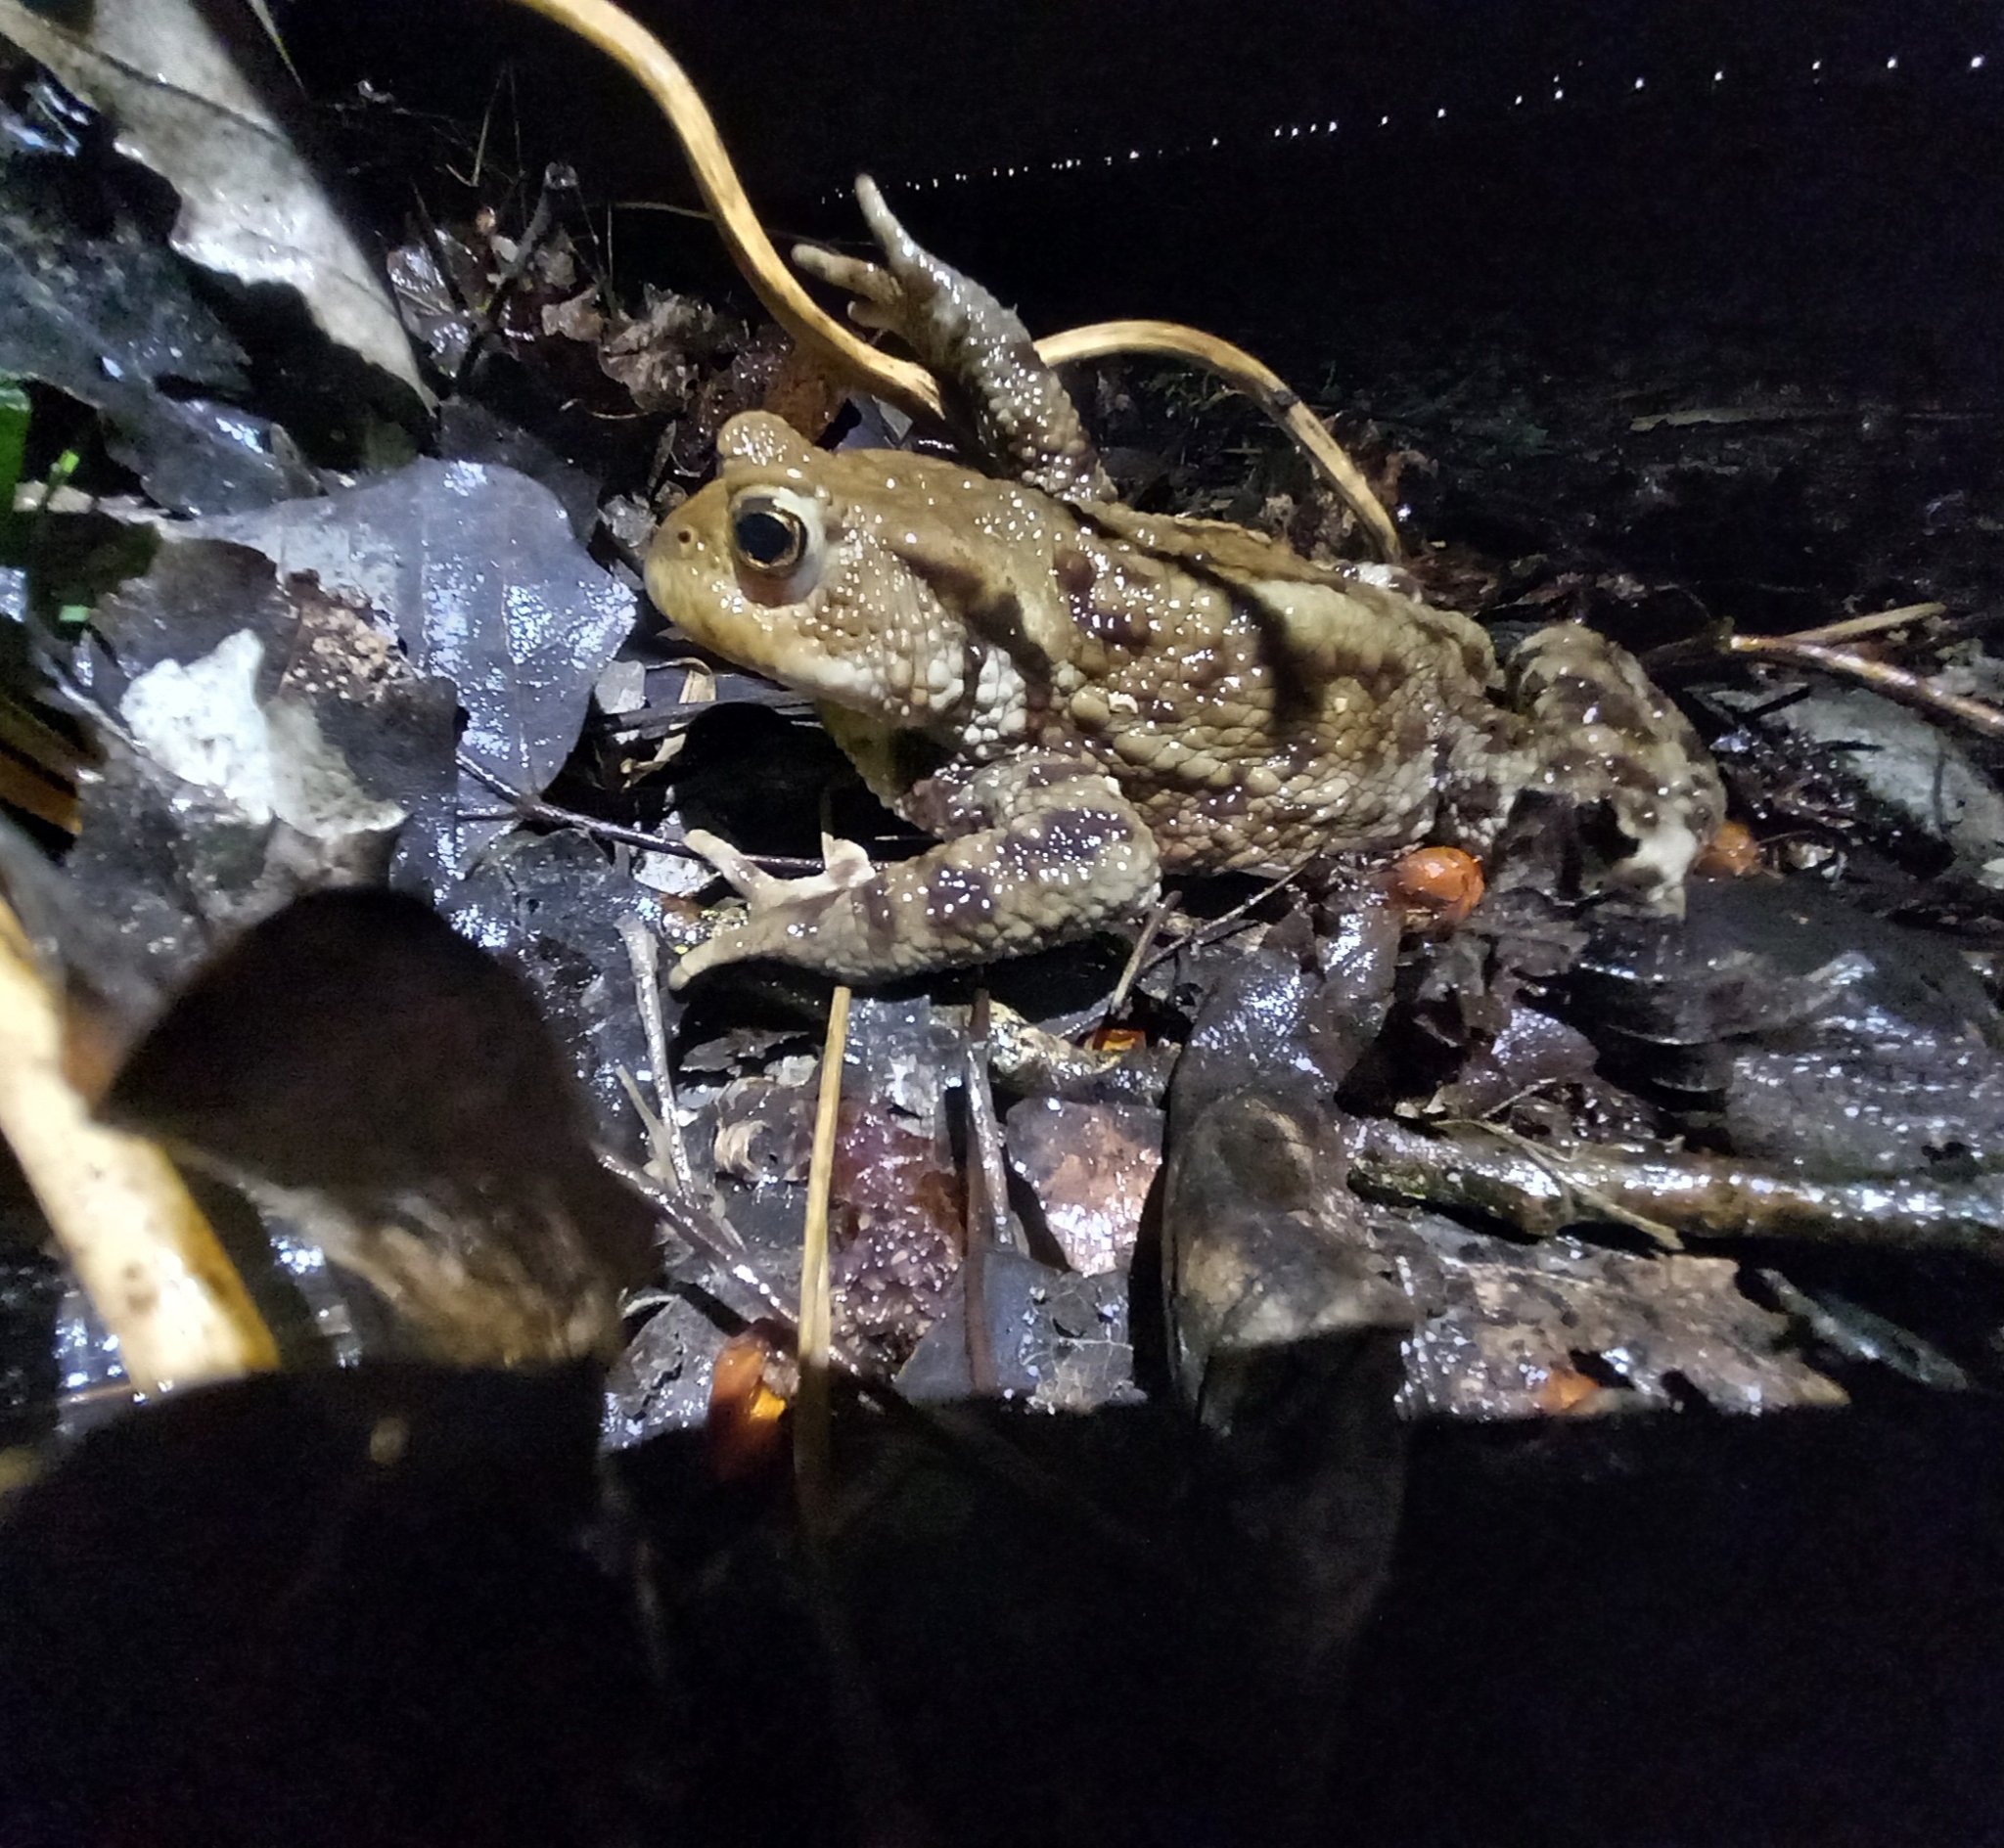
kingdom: Animalia
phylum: Chordata
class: Amphibia
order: Anura
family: Bufonidae
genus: Bufo
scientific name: Bufo bufo
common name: Common toad
